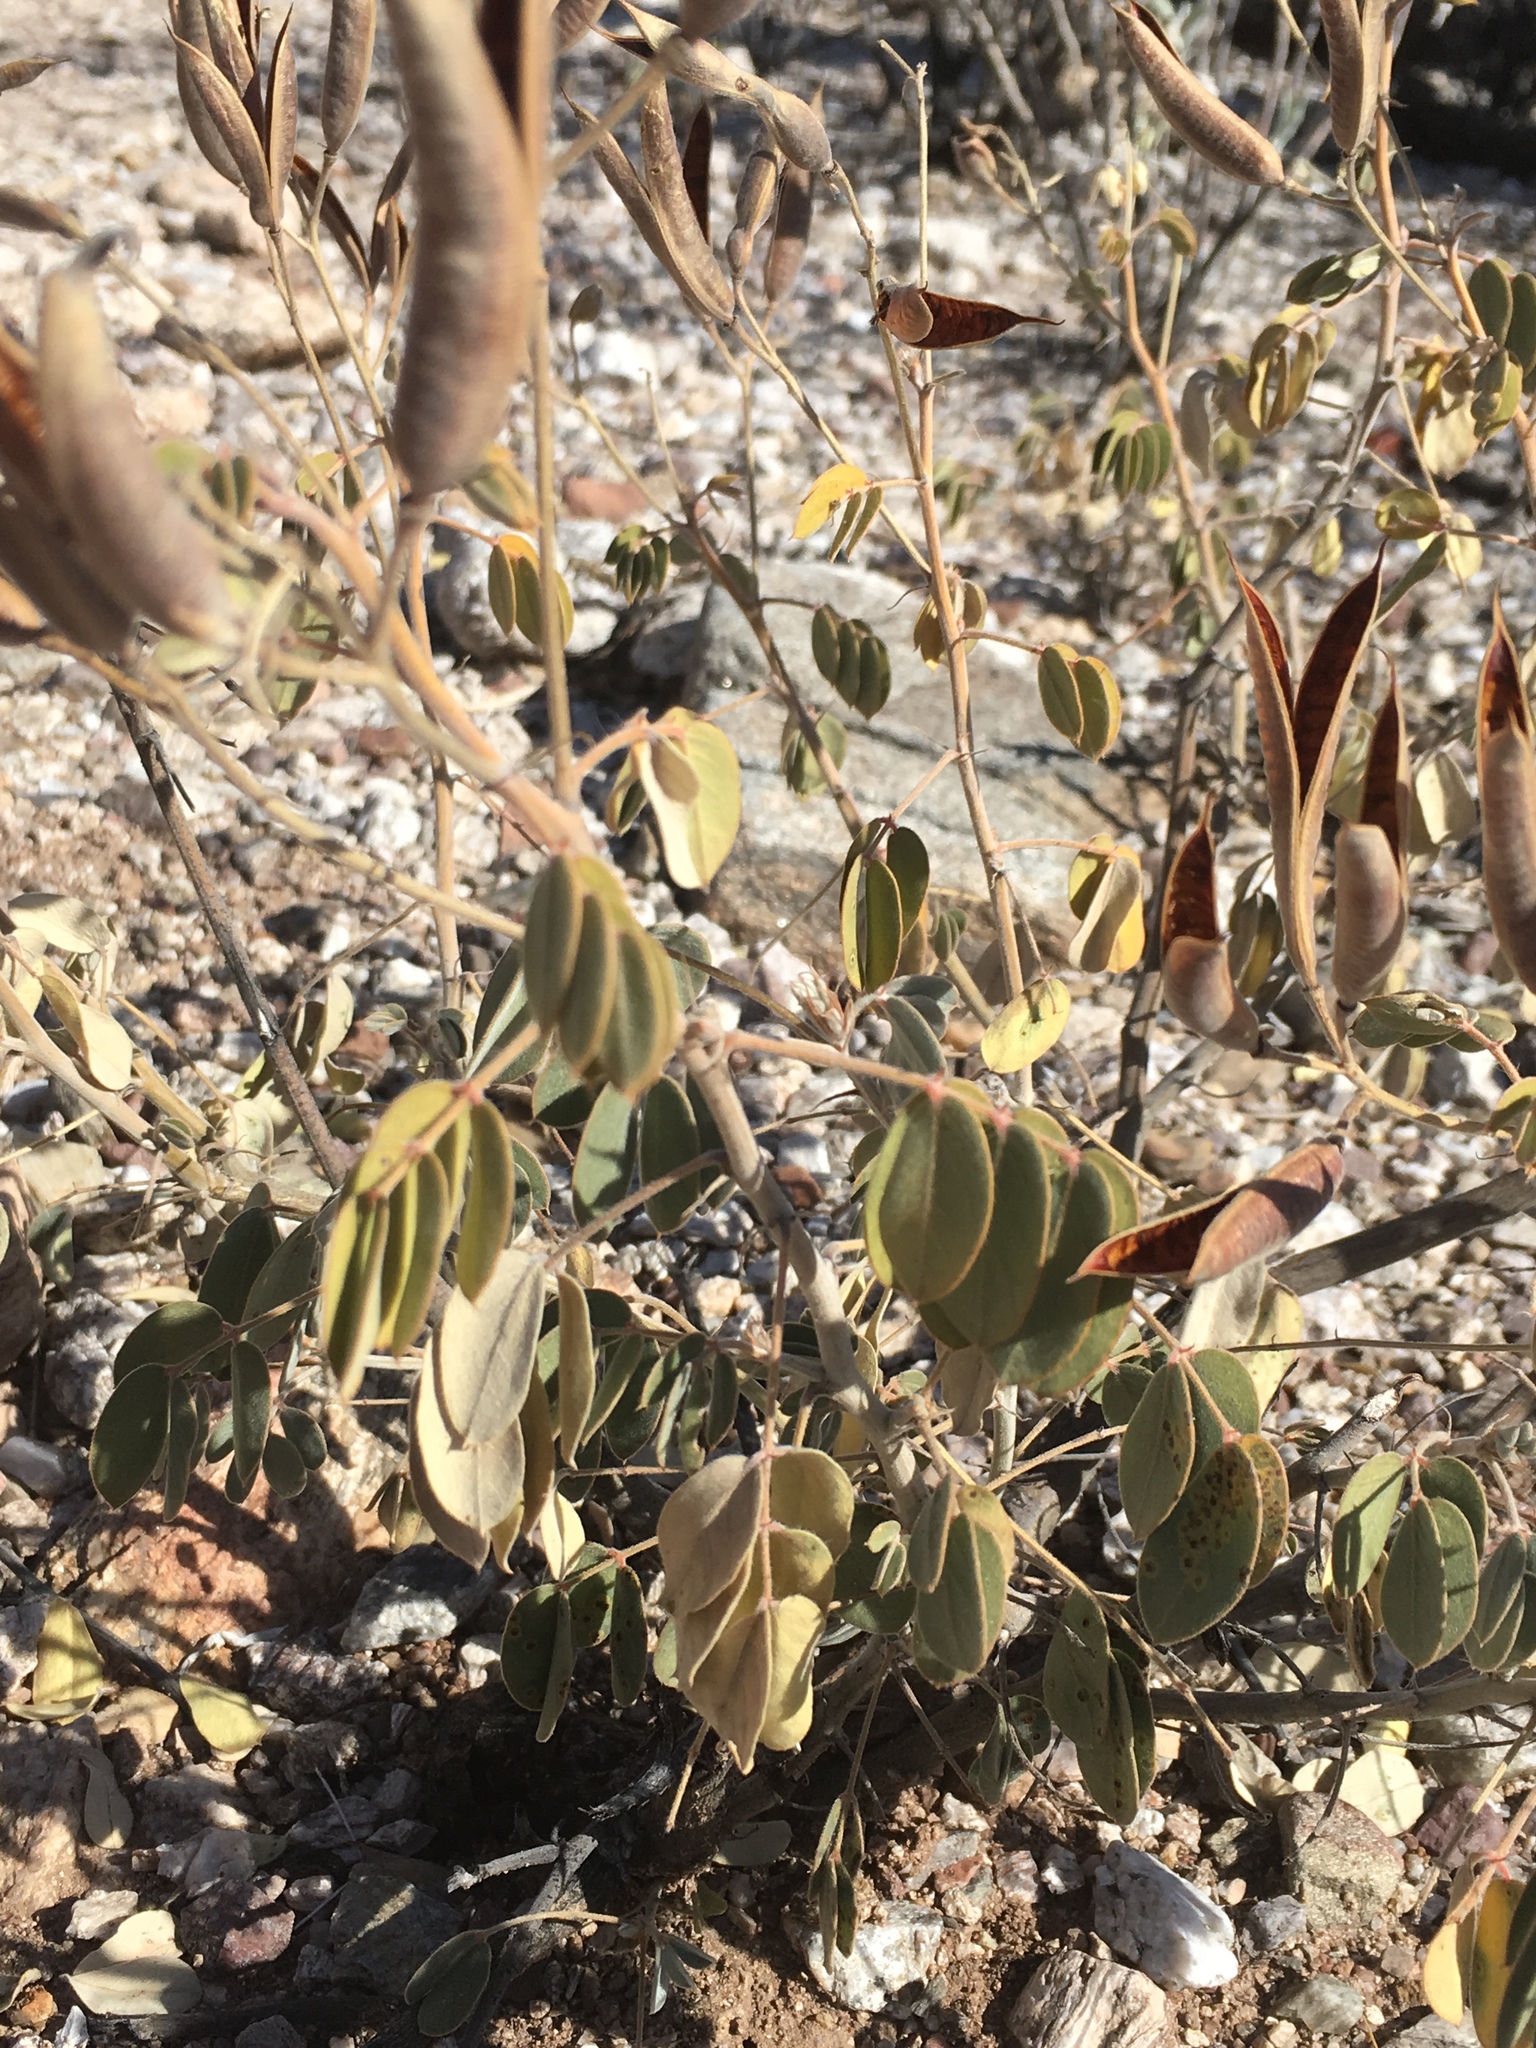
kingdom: Plantae
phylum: Tracheophyta
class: Magnoliopsida
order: Fabales
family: Fabaceae
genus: Senna
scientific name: Senna covesii
